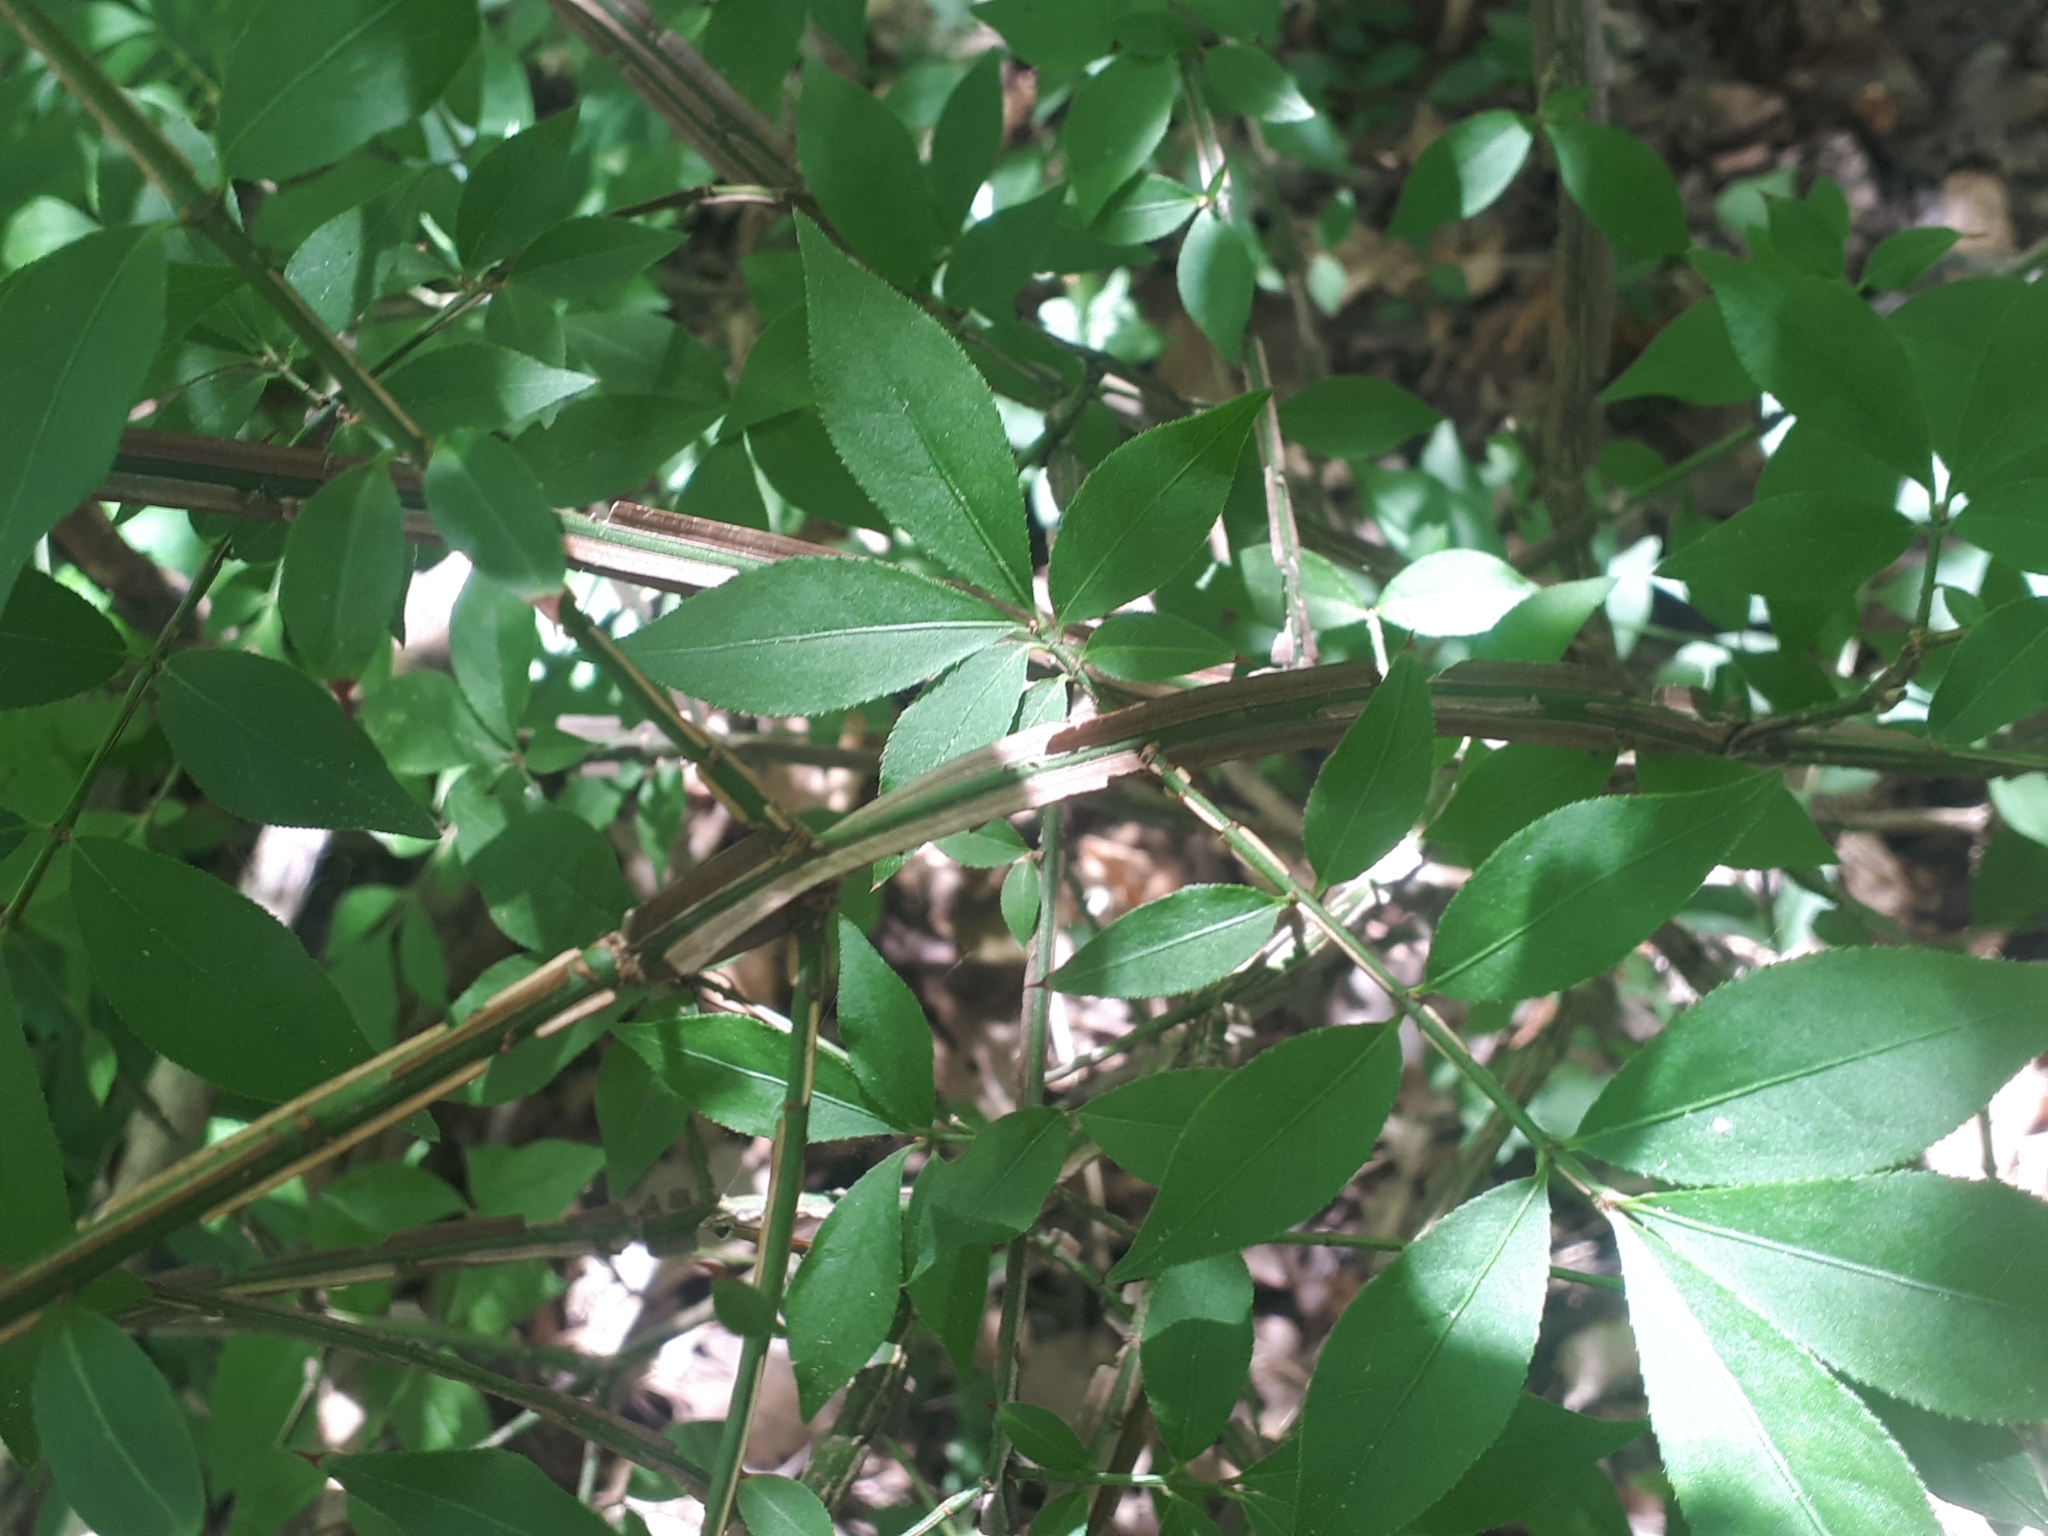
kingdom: Plantae
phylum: Tracheophyta
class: Magnoliopsida
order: Celastrales
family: Celastraceae
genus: Euonymus
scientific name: Euonymus alatus
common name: Winged euonymus
